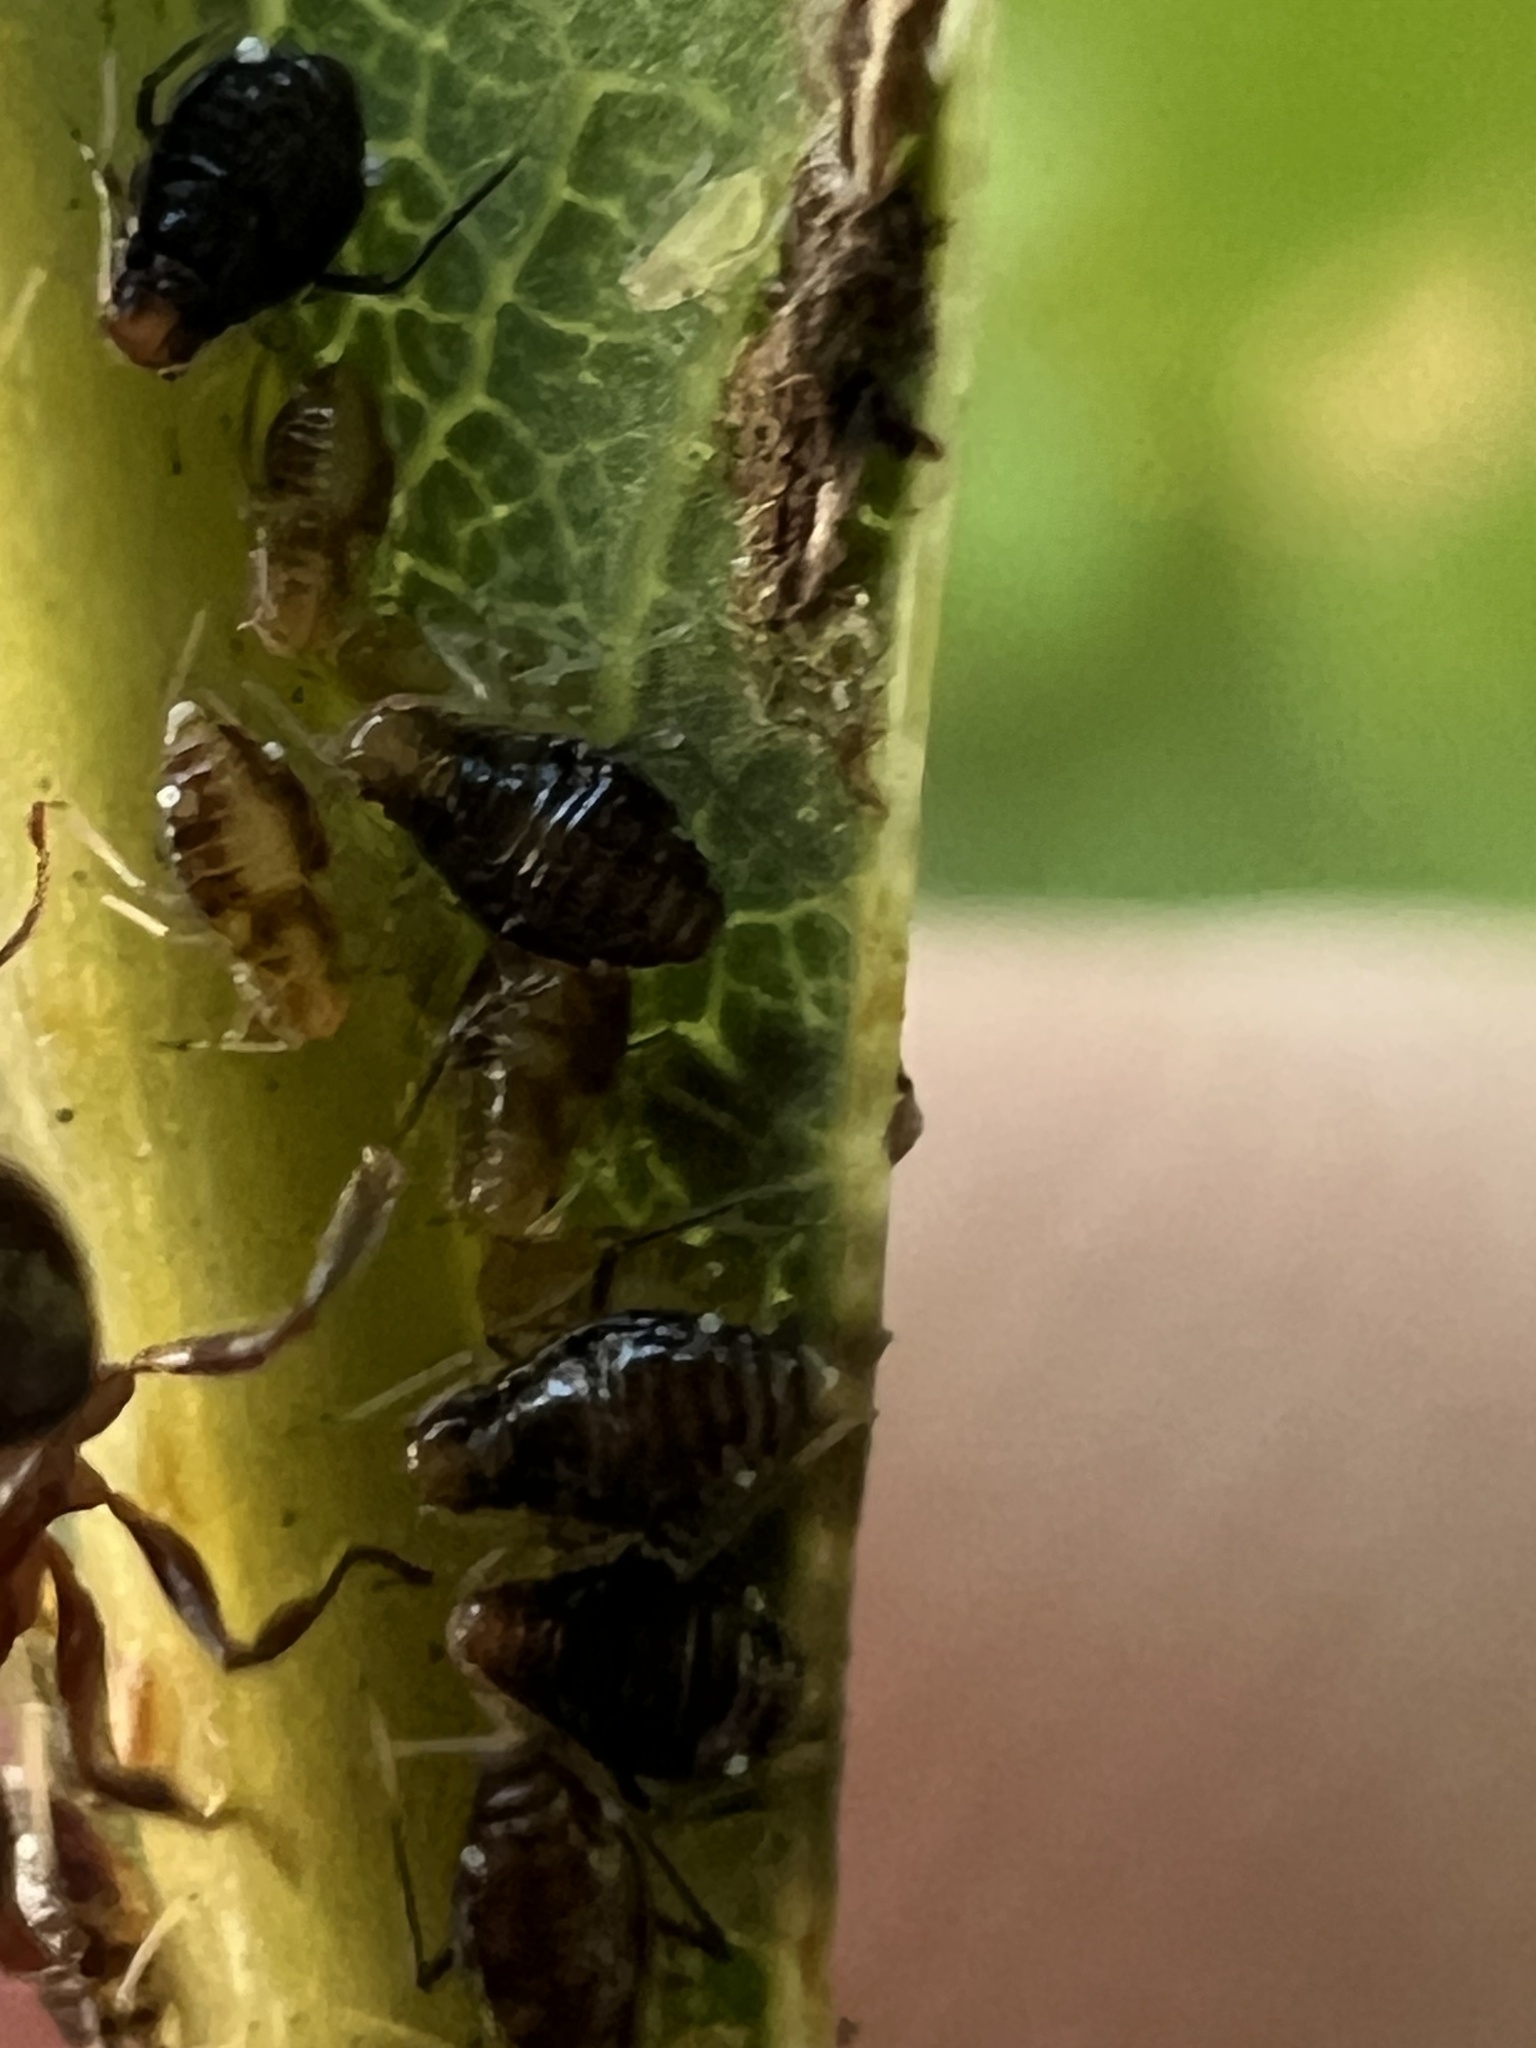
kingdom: Animalia
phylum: Arthropoda
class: Insecta
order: Hemiptera
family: Aphididae
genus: Neosymydobius
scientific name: Neosymydobius albasiphus
